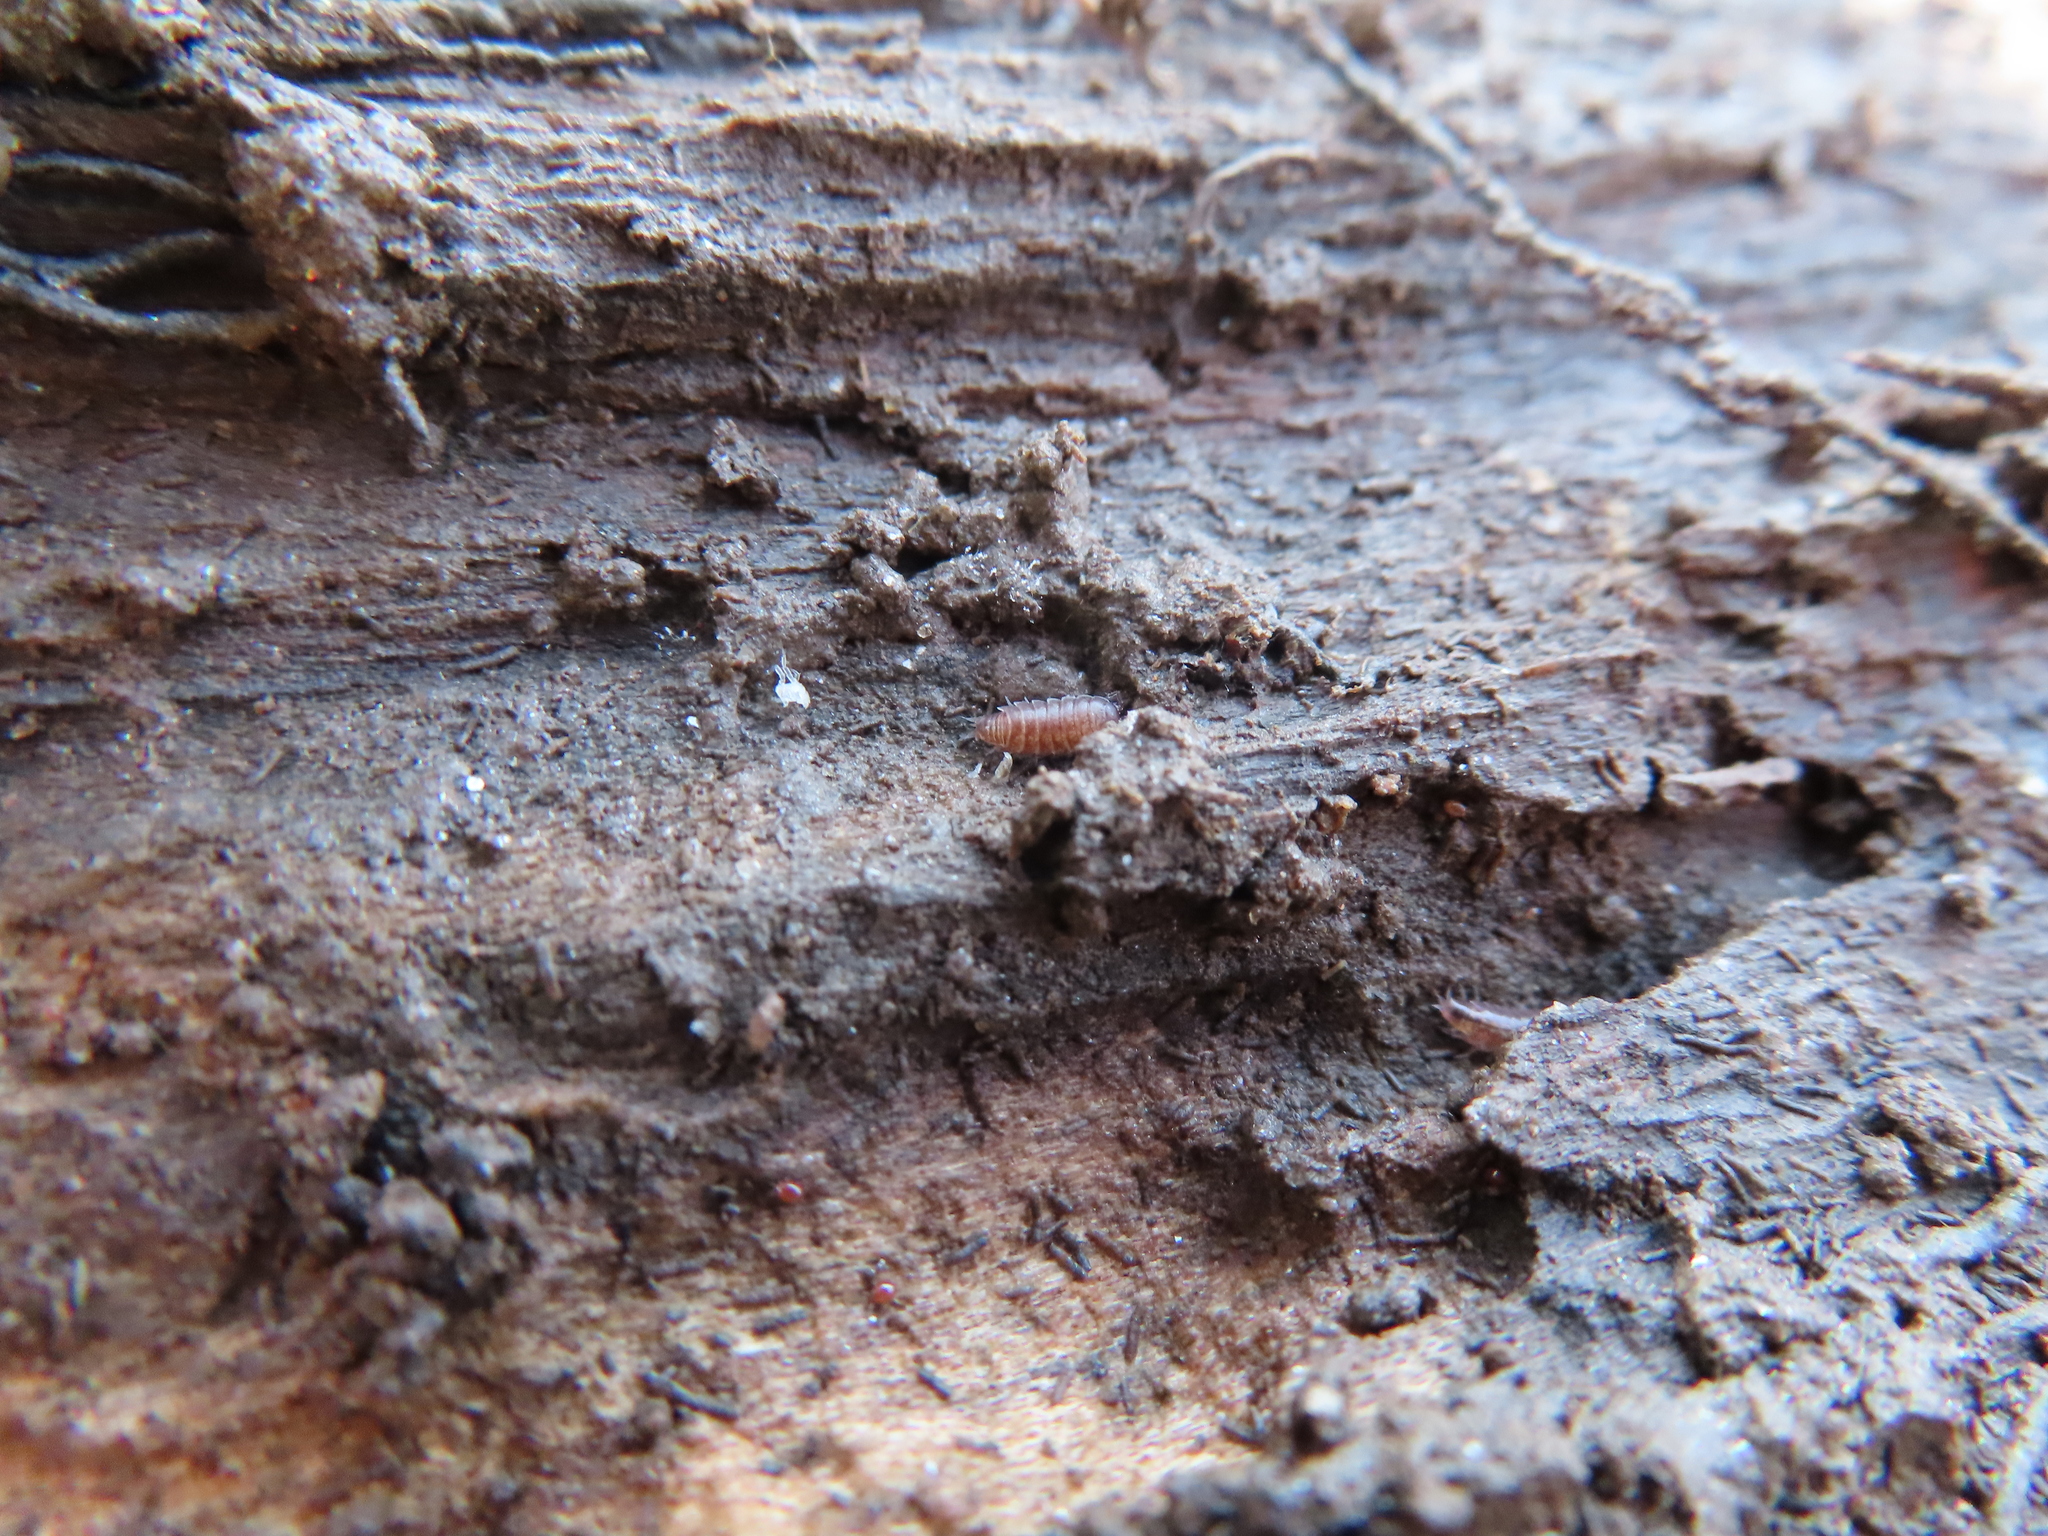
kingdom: Animalia
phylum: Arthropoda
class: Malacostraca
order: Isopoda
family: Trichoniscidae
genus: Hyloniscus
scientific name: Hyloniscus riparius
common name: Isopod
